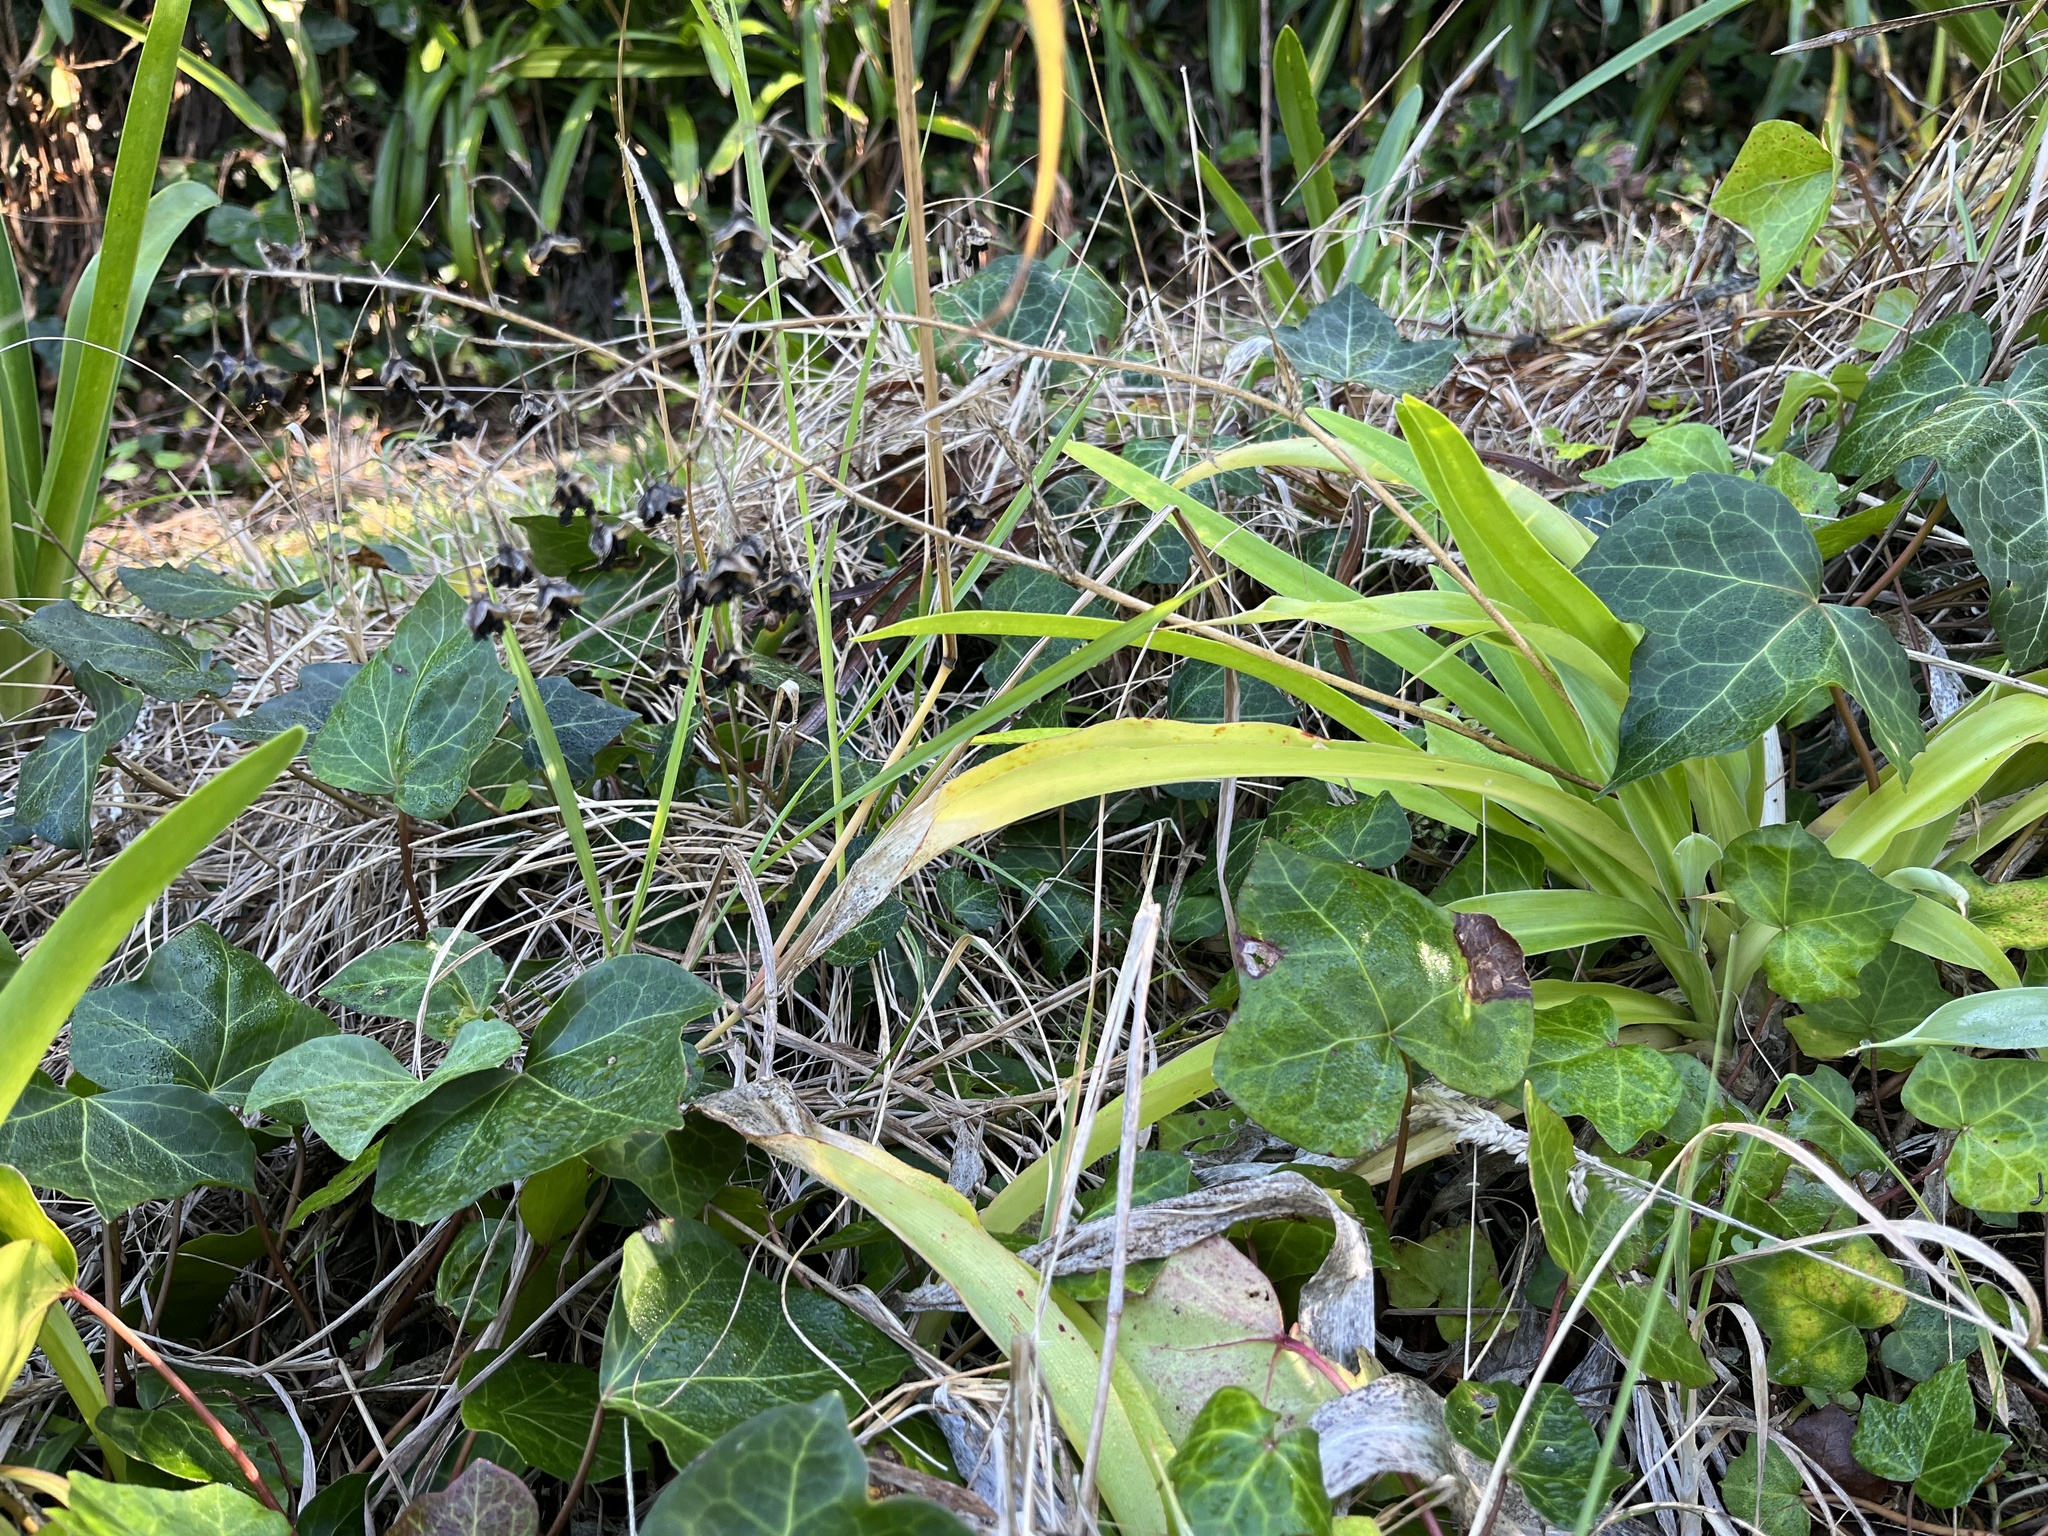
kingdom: Plantae
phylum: Tracheophyta
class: Liliopsida
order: Asparagales
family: Asparagaceae
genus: Arthropodium
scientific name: Arthropodium cirratum
